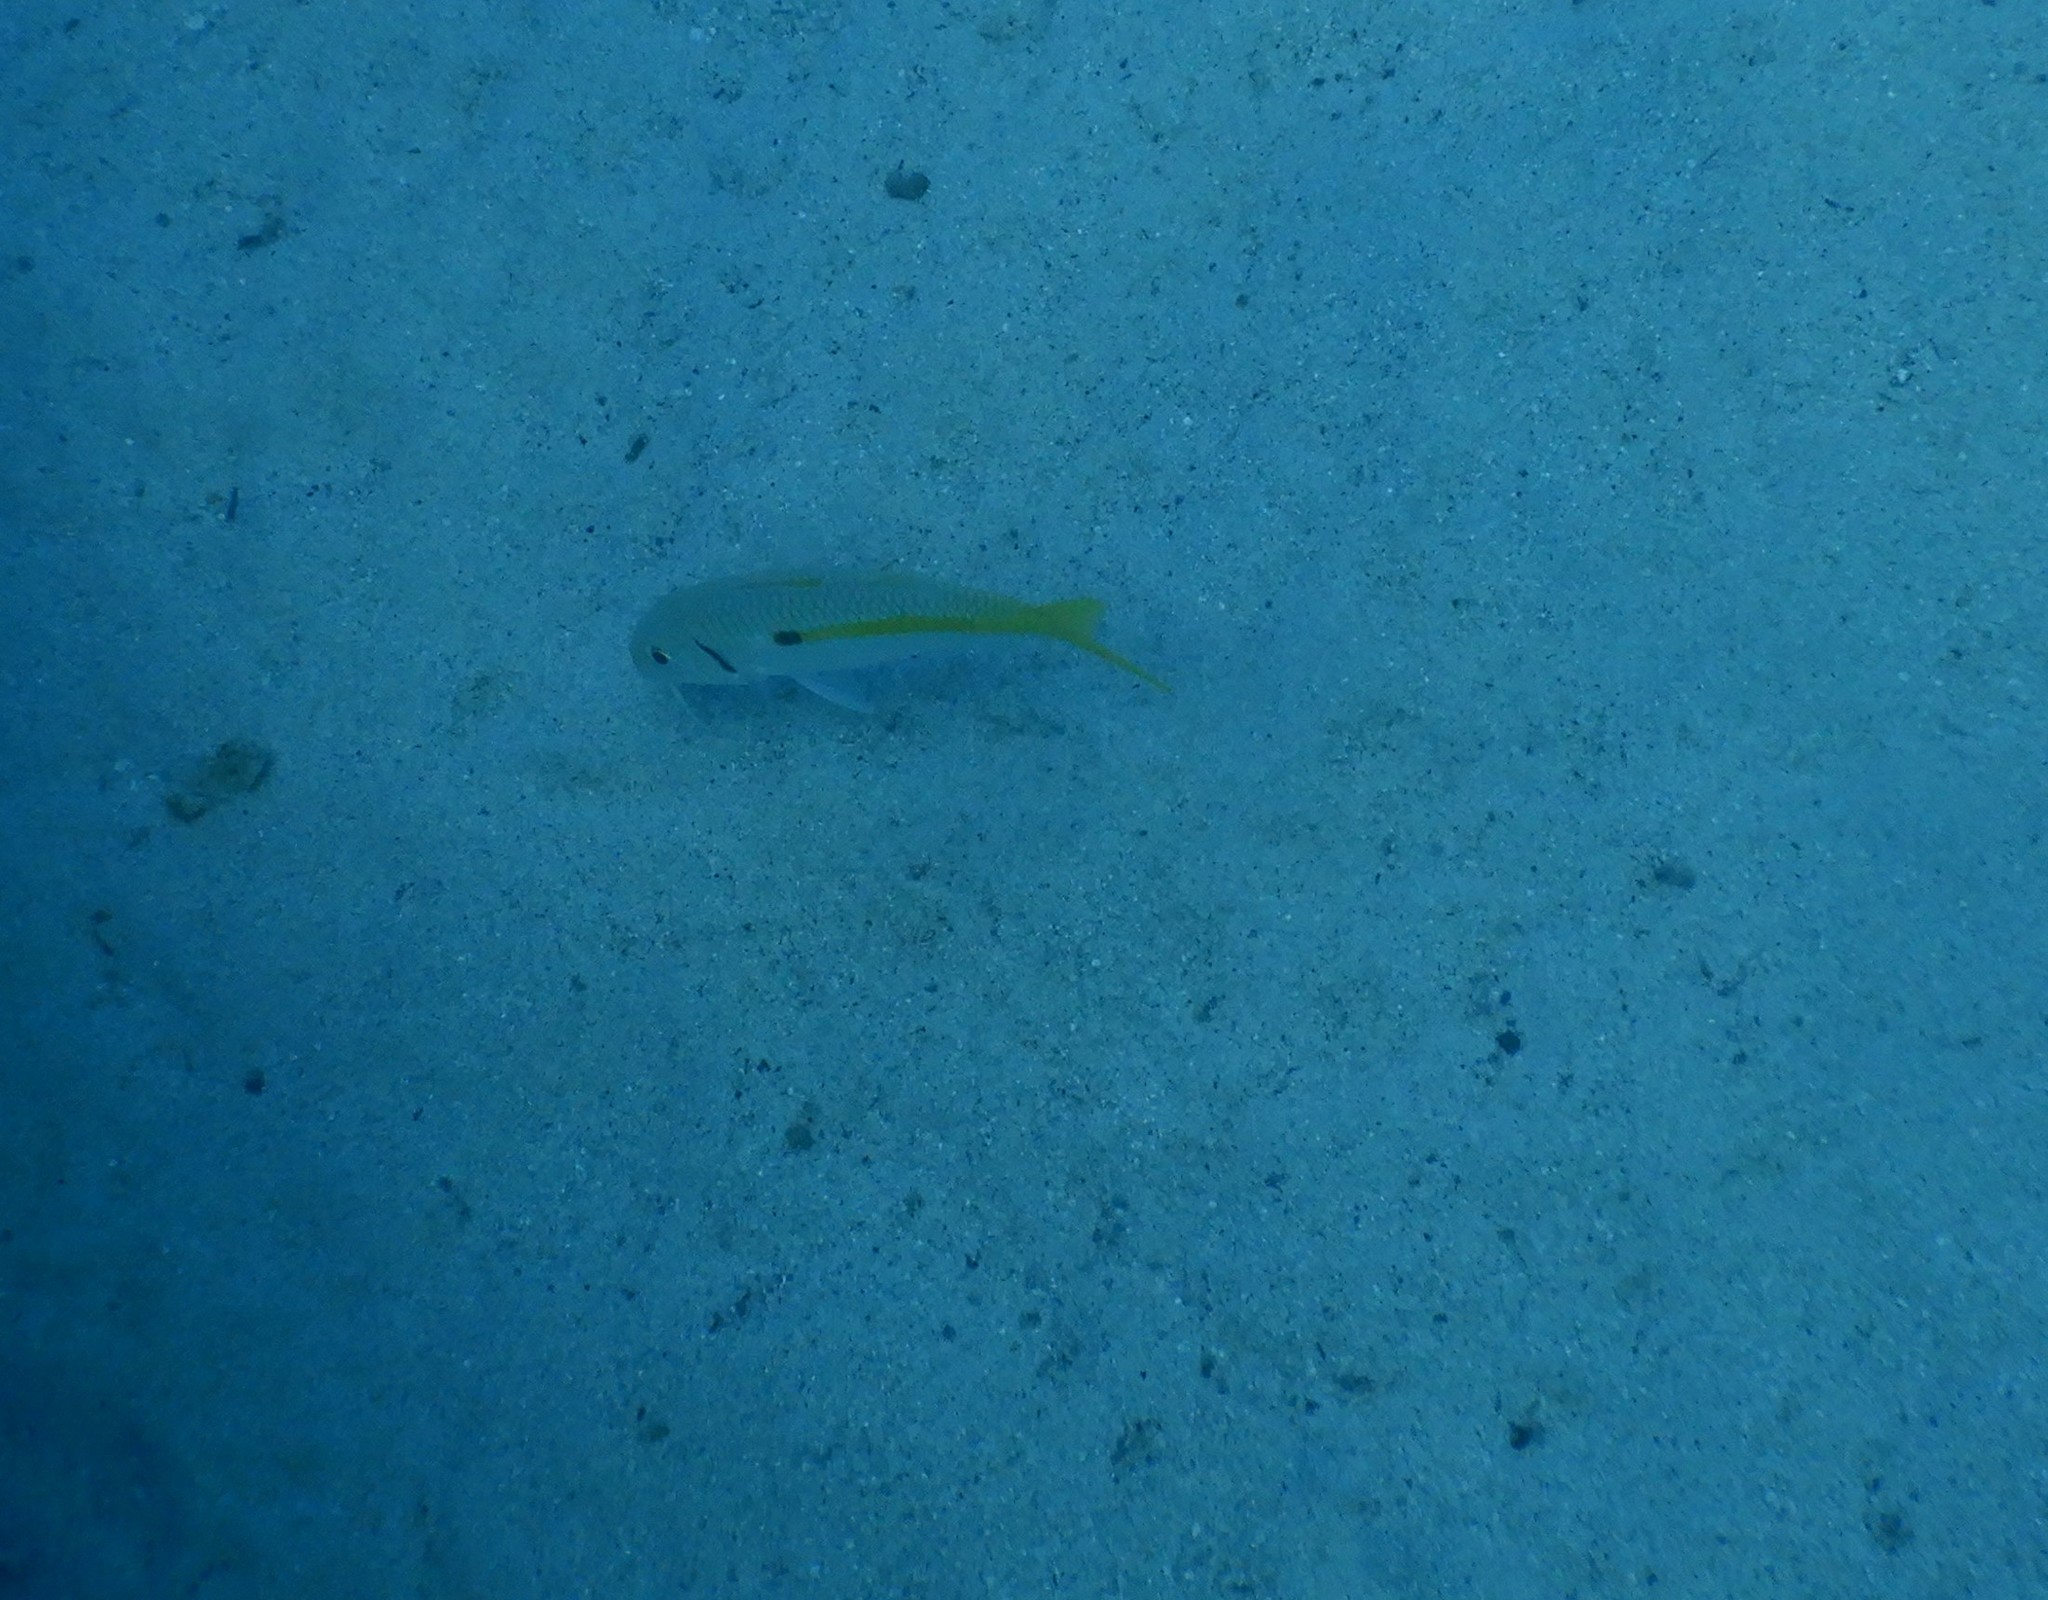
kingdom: Animalia
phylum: Chordata
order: Perciformes
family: Mullidae
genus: Mulloidichthys
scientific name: Mulloidichthys flavolineatus
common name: Yellowstripe goatfish
